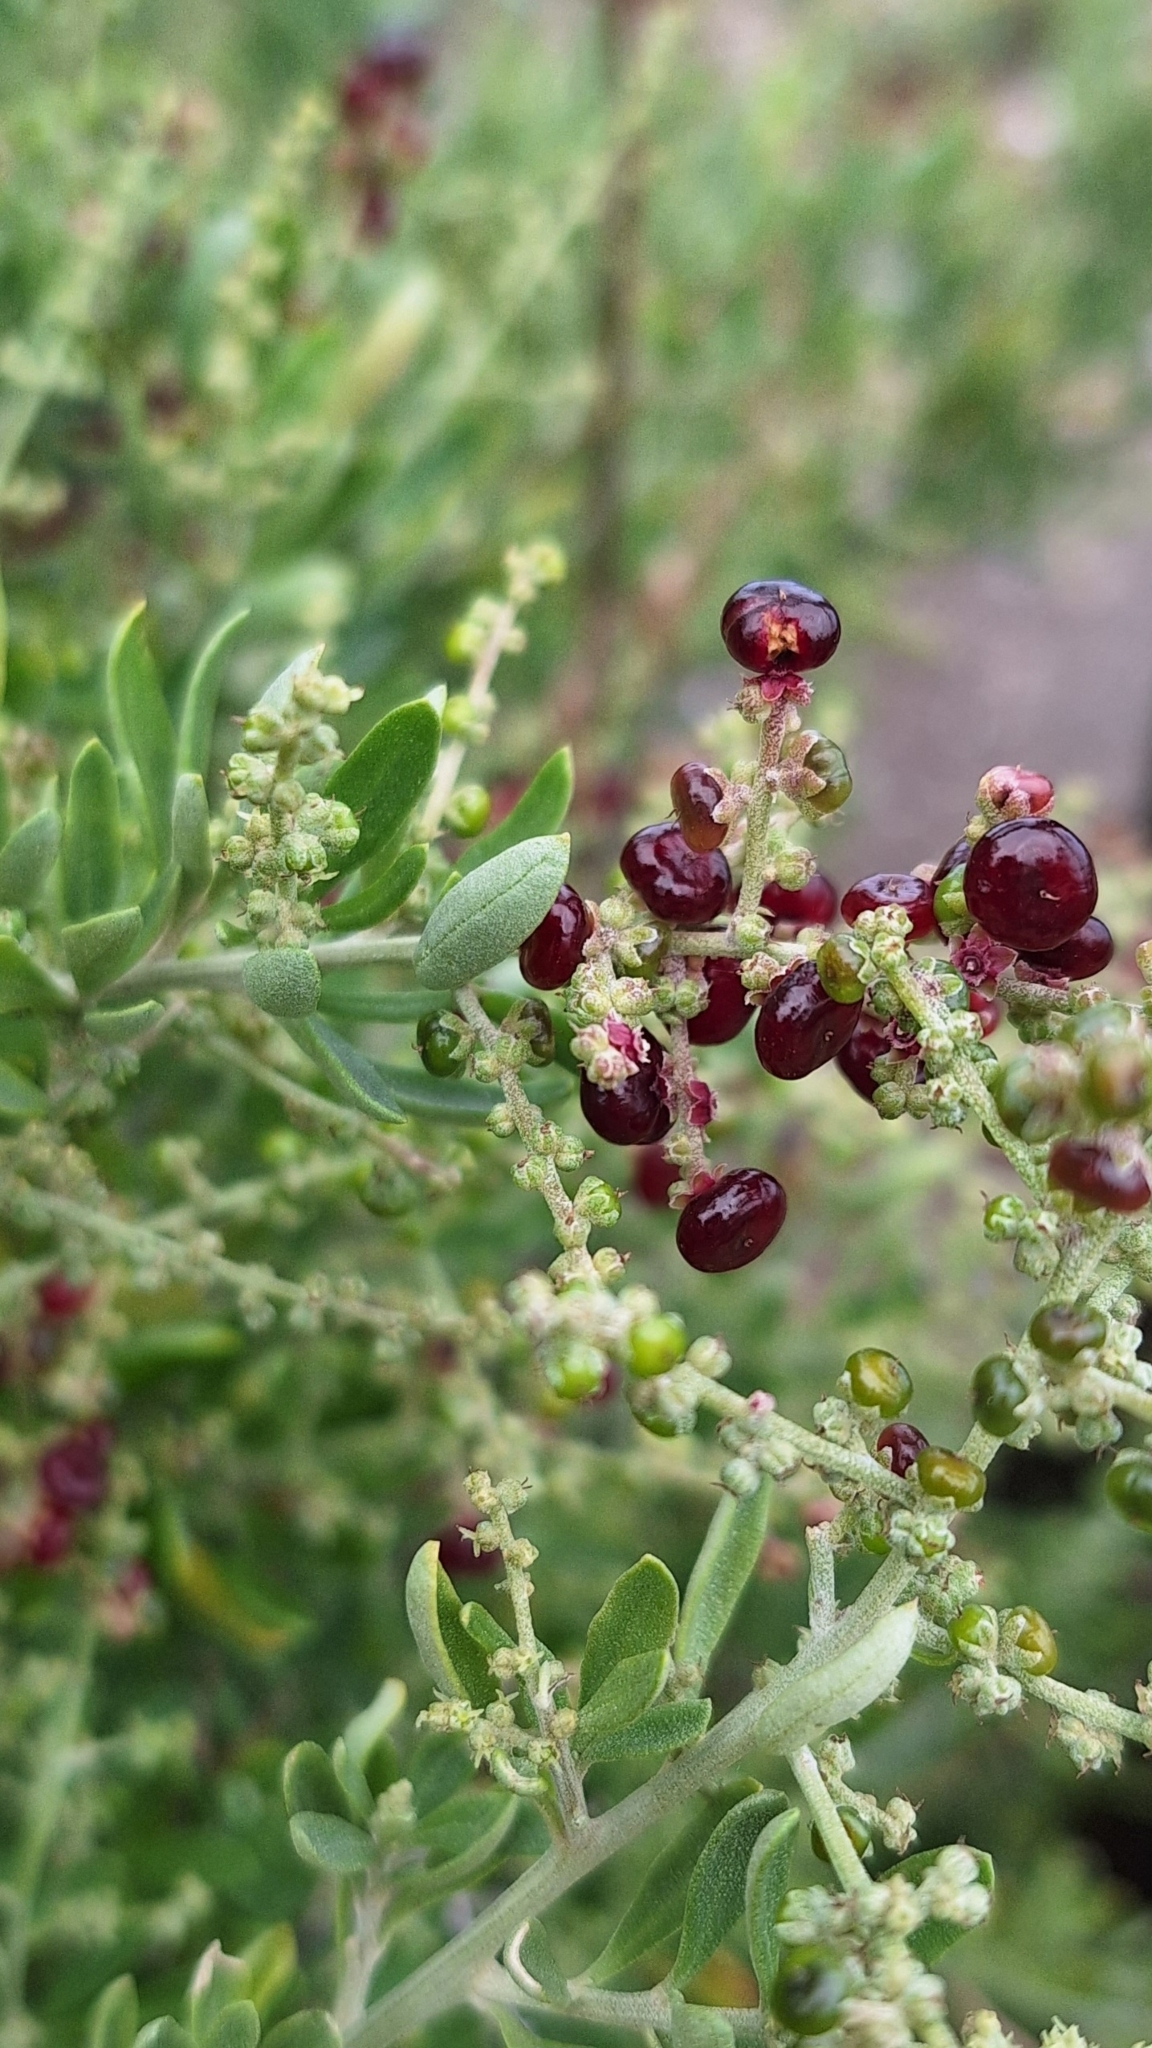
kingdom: Plantae
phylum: Tracheophyta
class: Magnoliopsida
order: Caryophyllales
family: Amaranthaceae
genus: Chenopodium
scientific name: Chenopodium candolleanum
